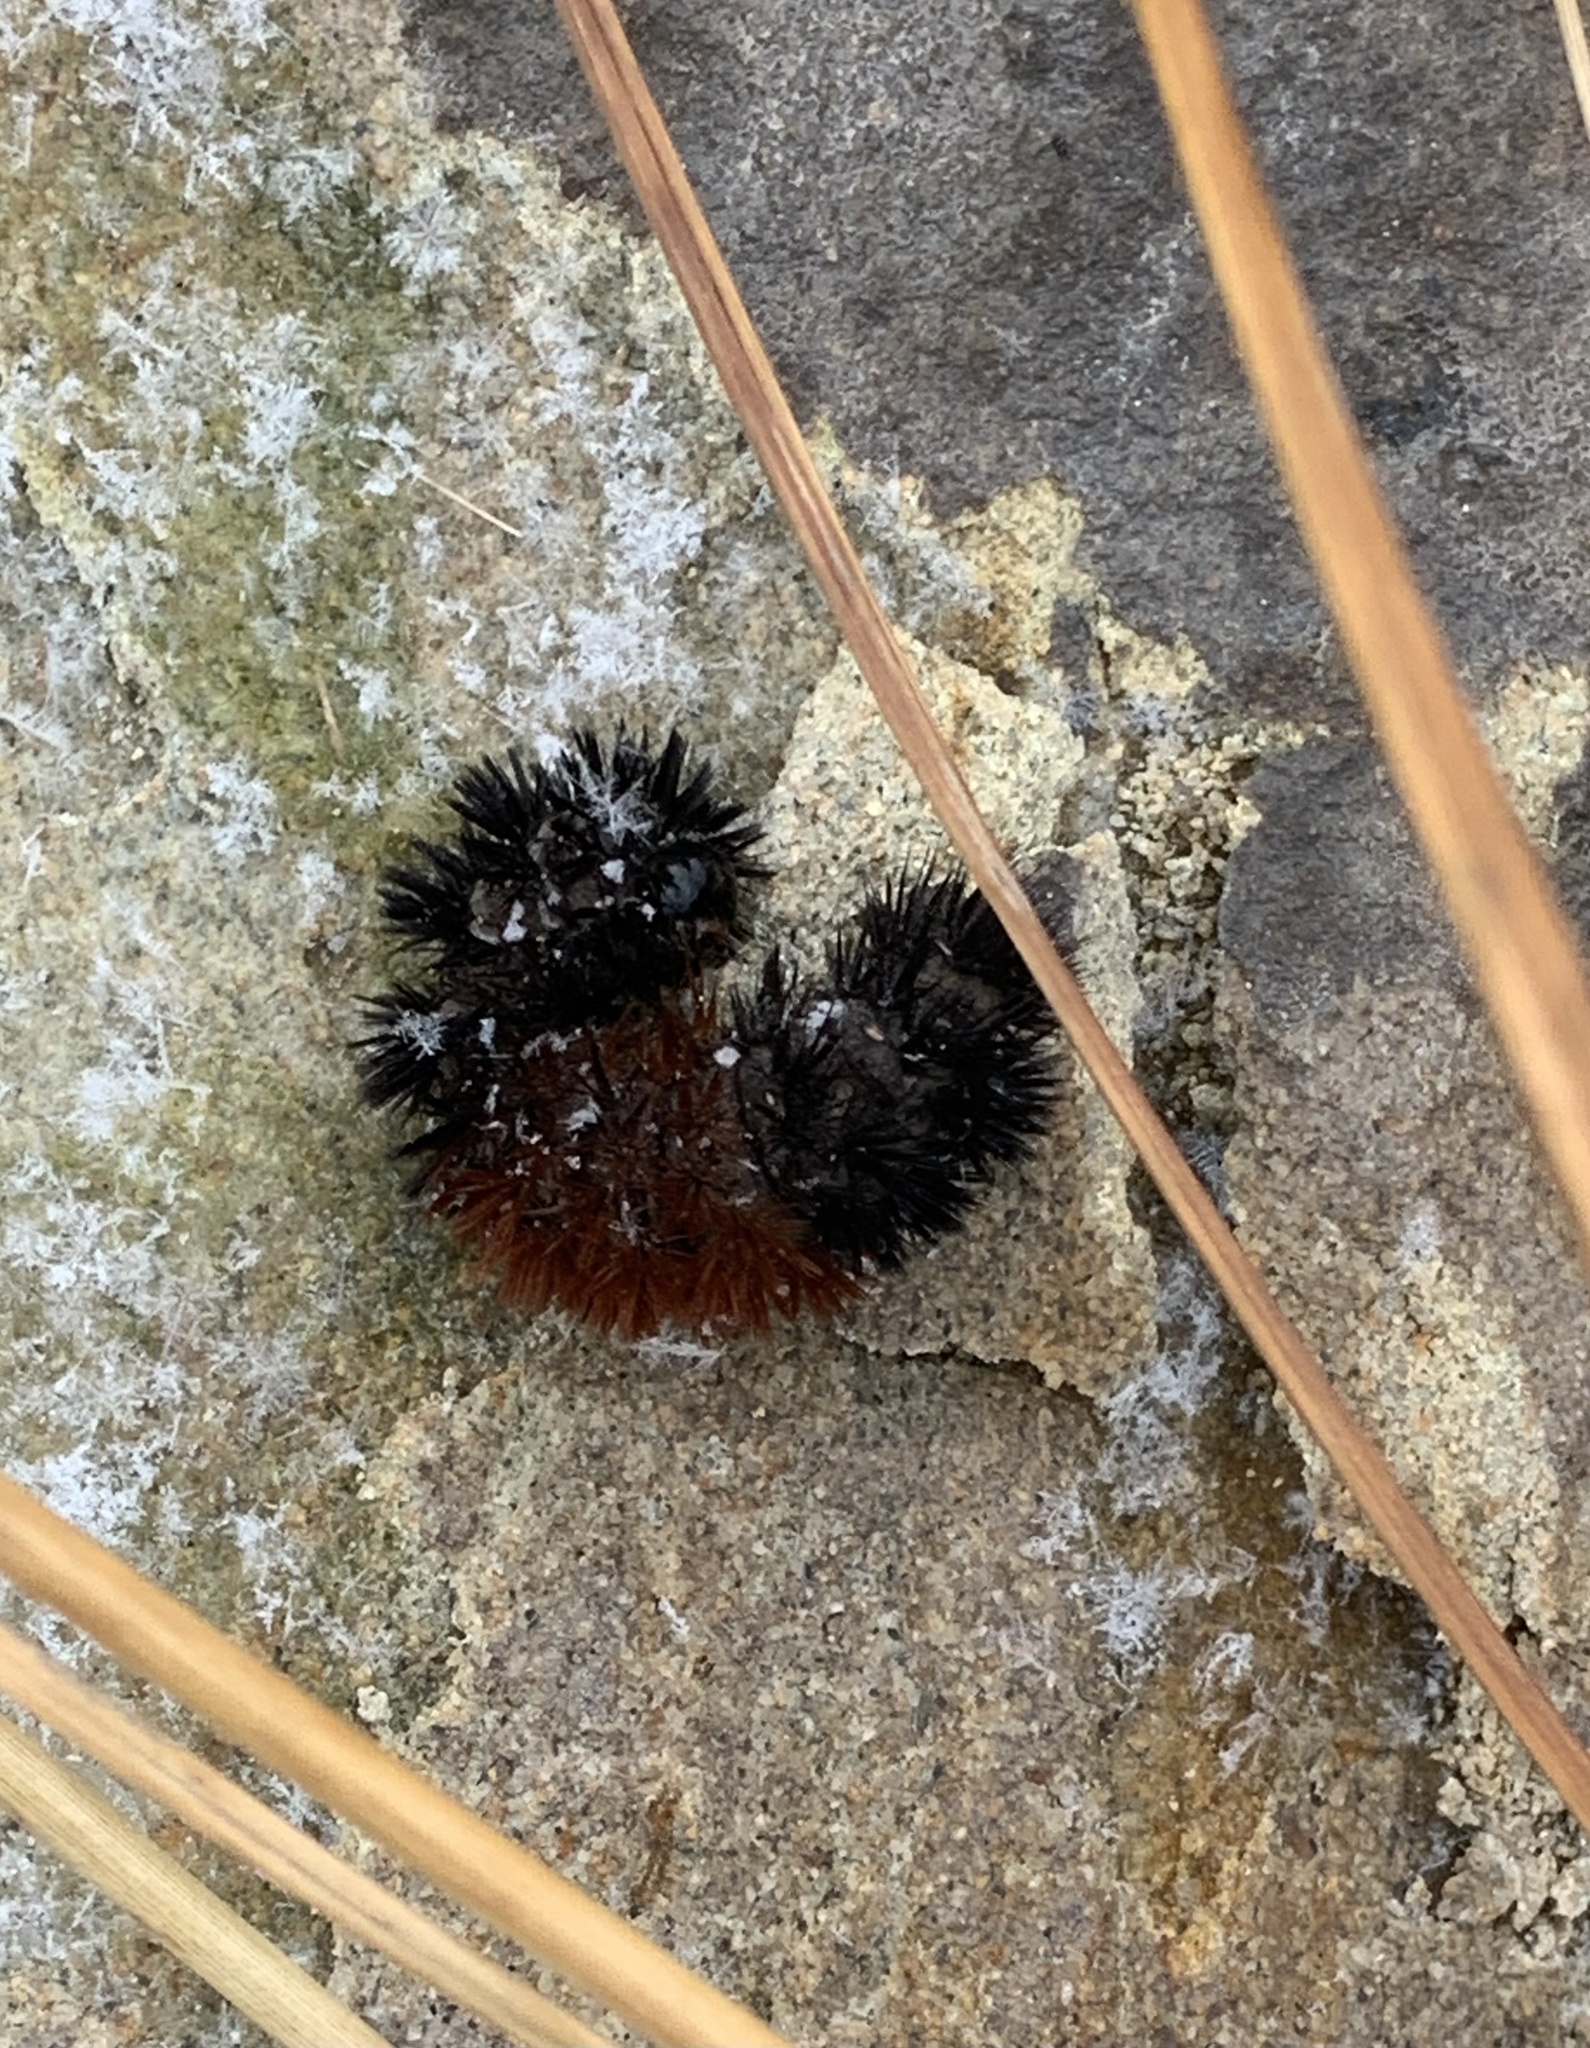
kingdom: Animalia
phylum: Arthropoda
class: Insecta
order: Lepidoptera
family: Erebidae
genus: Pyrrharctia
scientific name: Pyrrharctia isabella
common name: Isabella tiger moth
